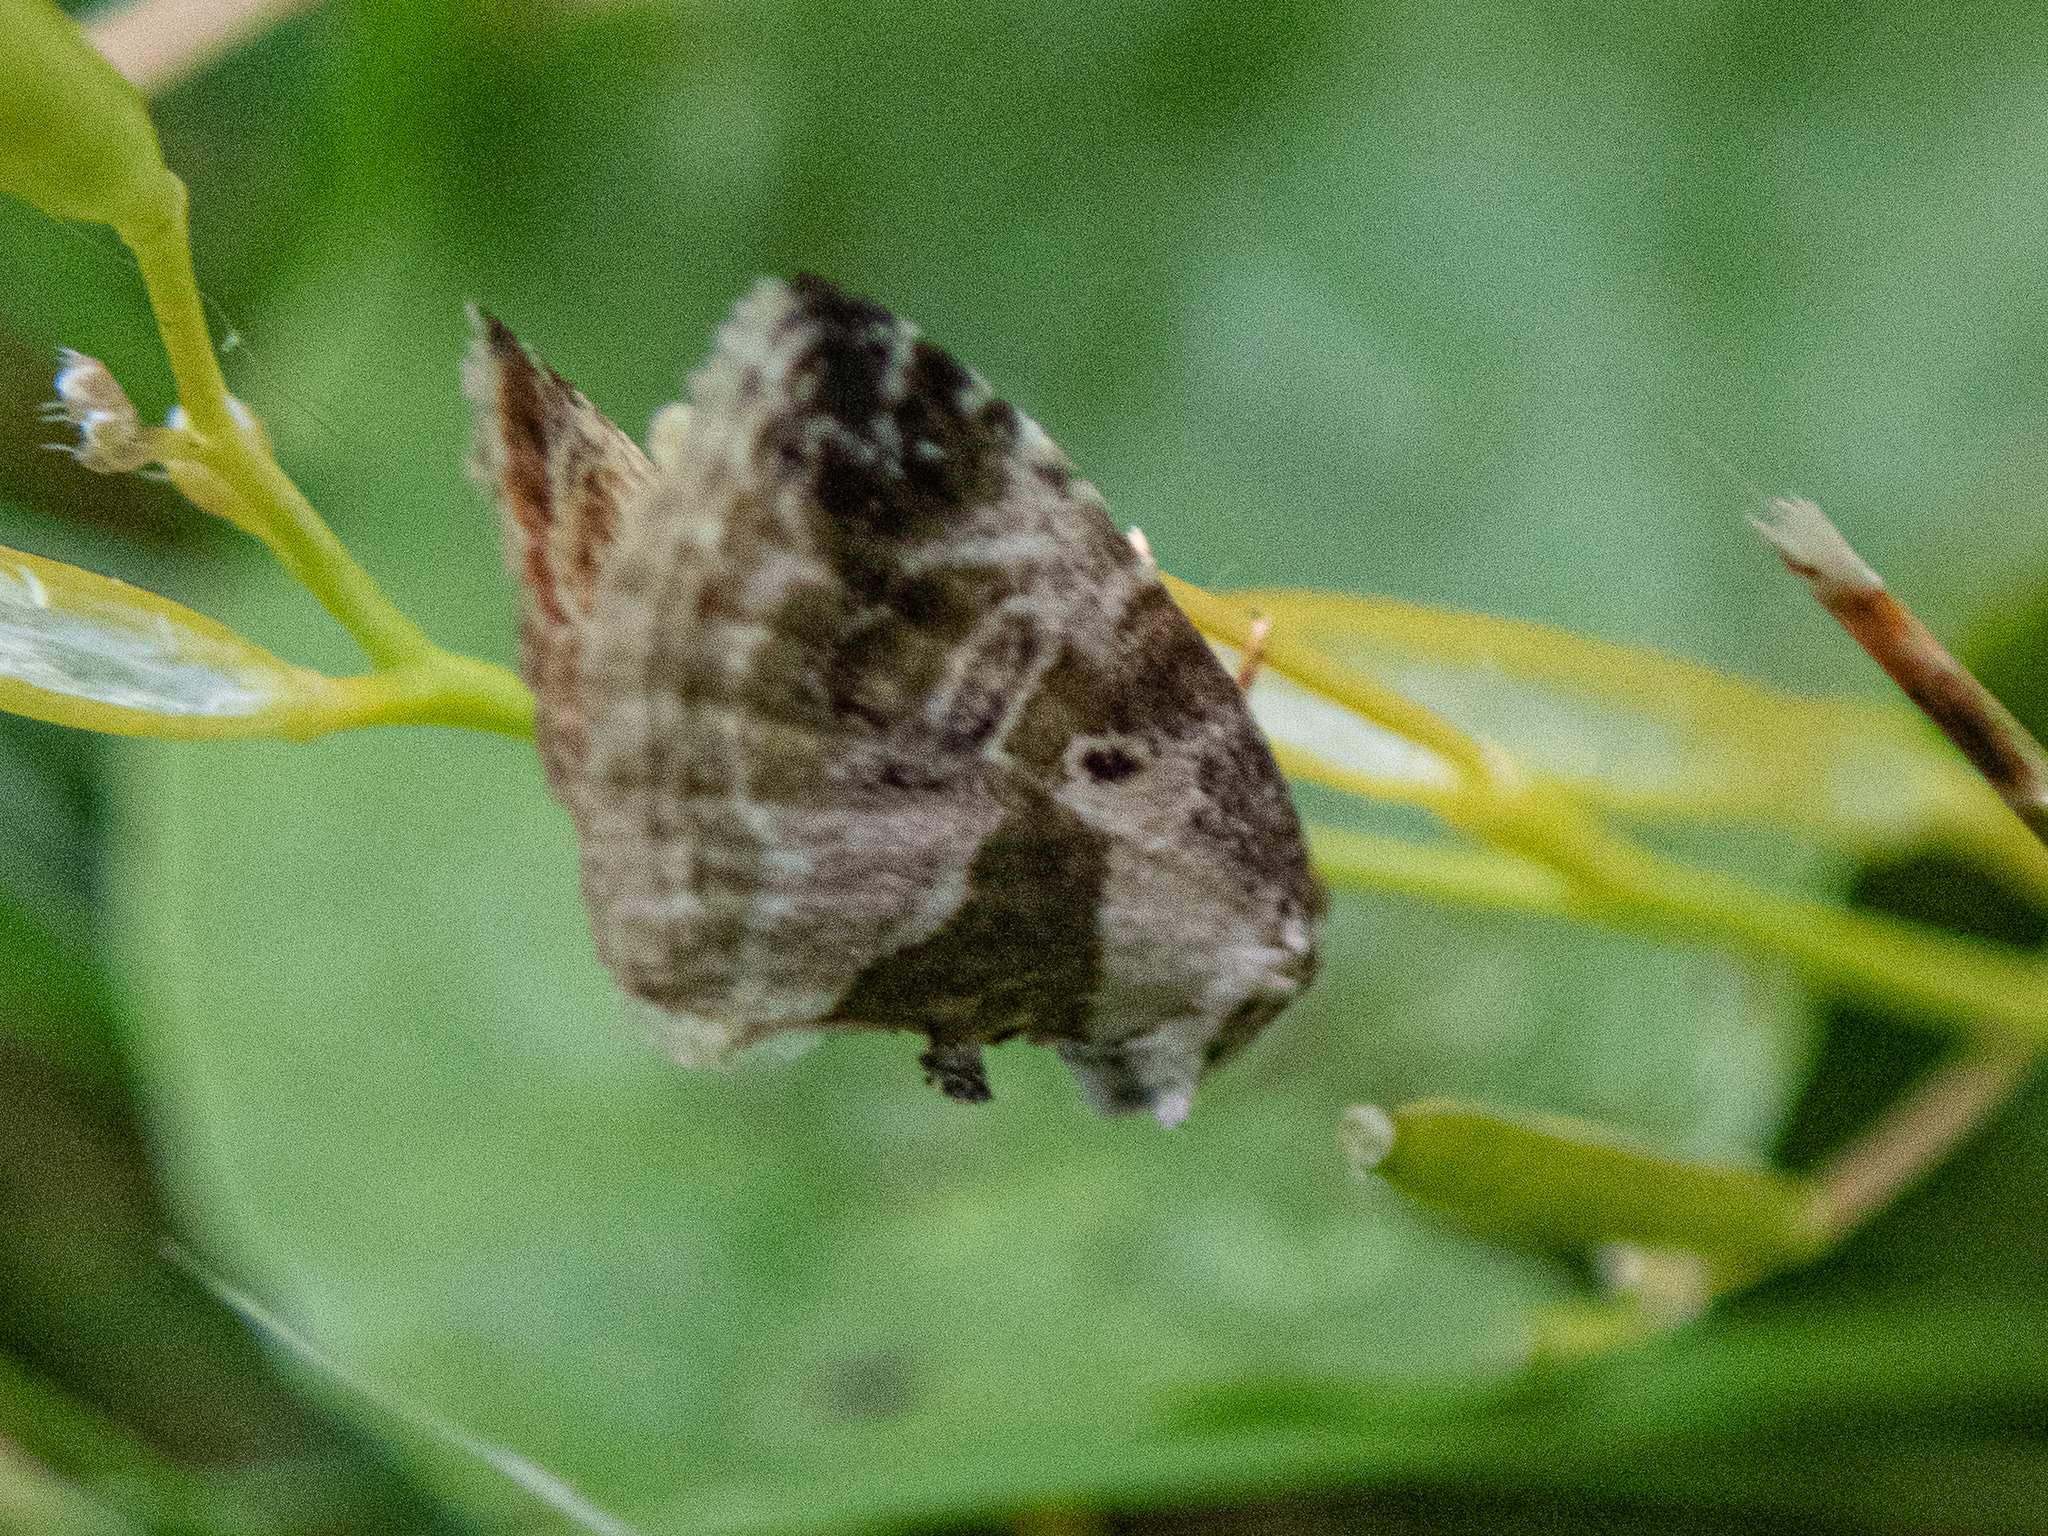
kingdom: Animalia
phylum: Arthropoda
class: Insecta
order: Lepidoptera
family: Noctuidae
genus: Maliattha
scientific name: Maliattha synochitis
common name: Black-dotted glyph
